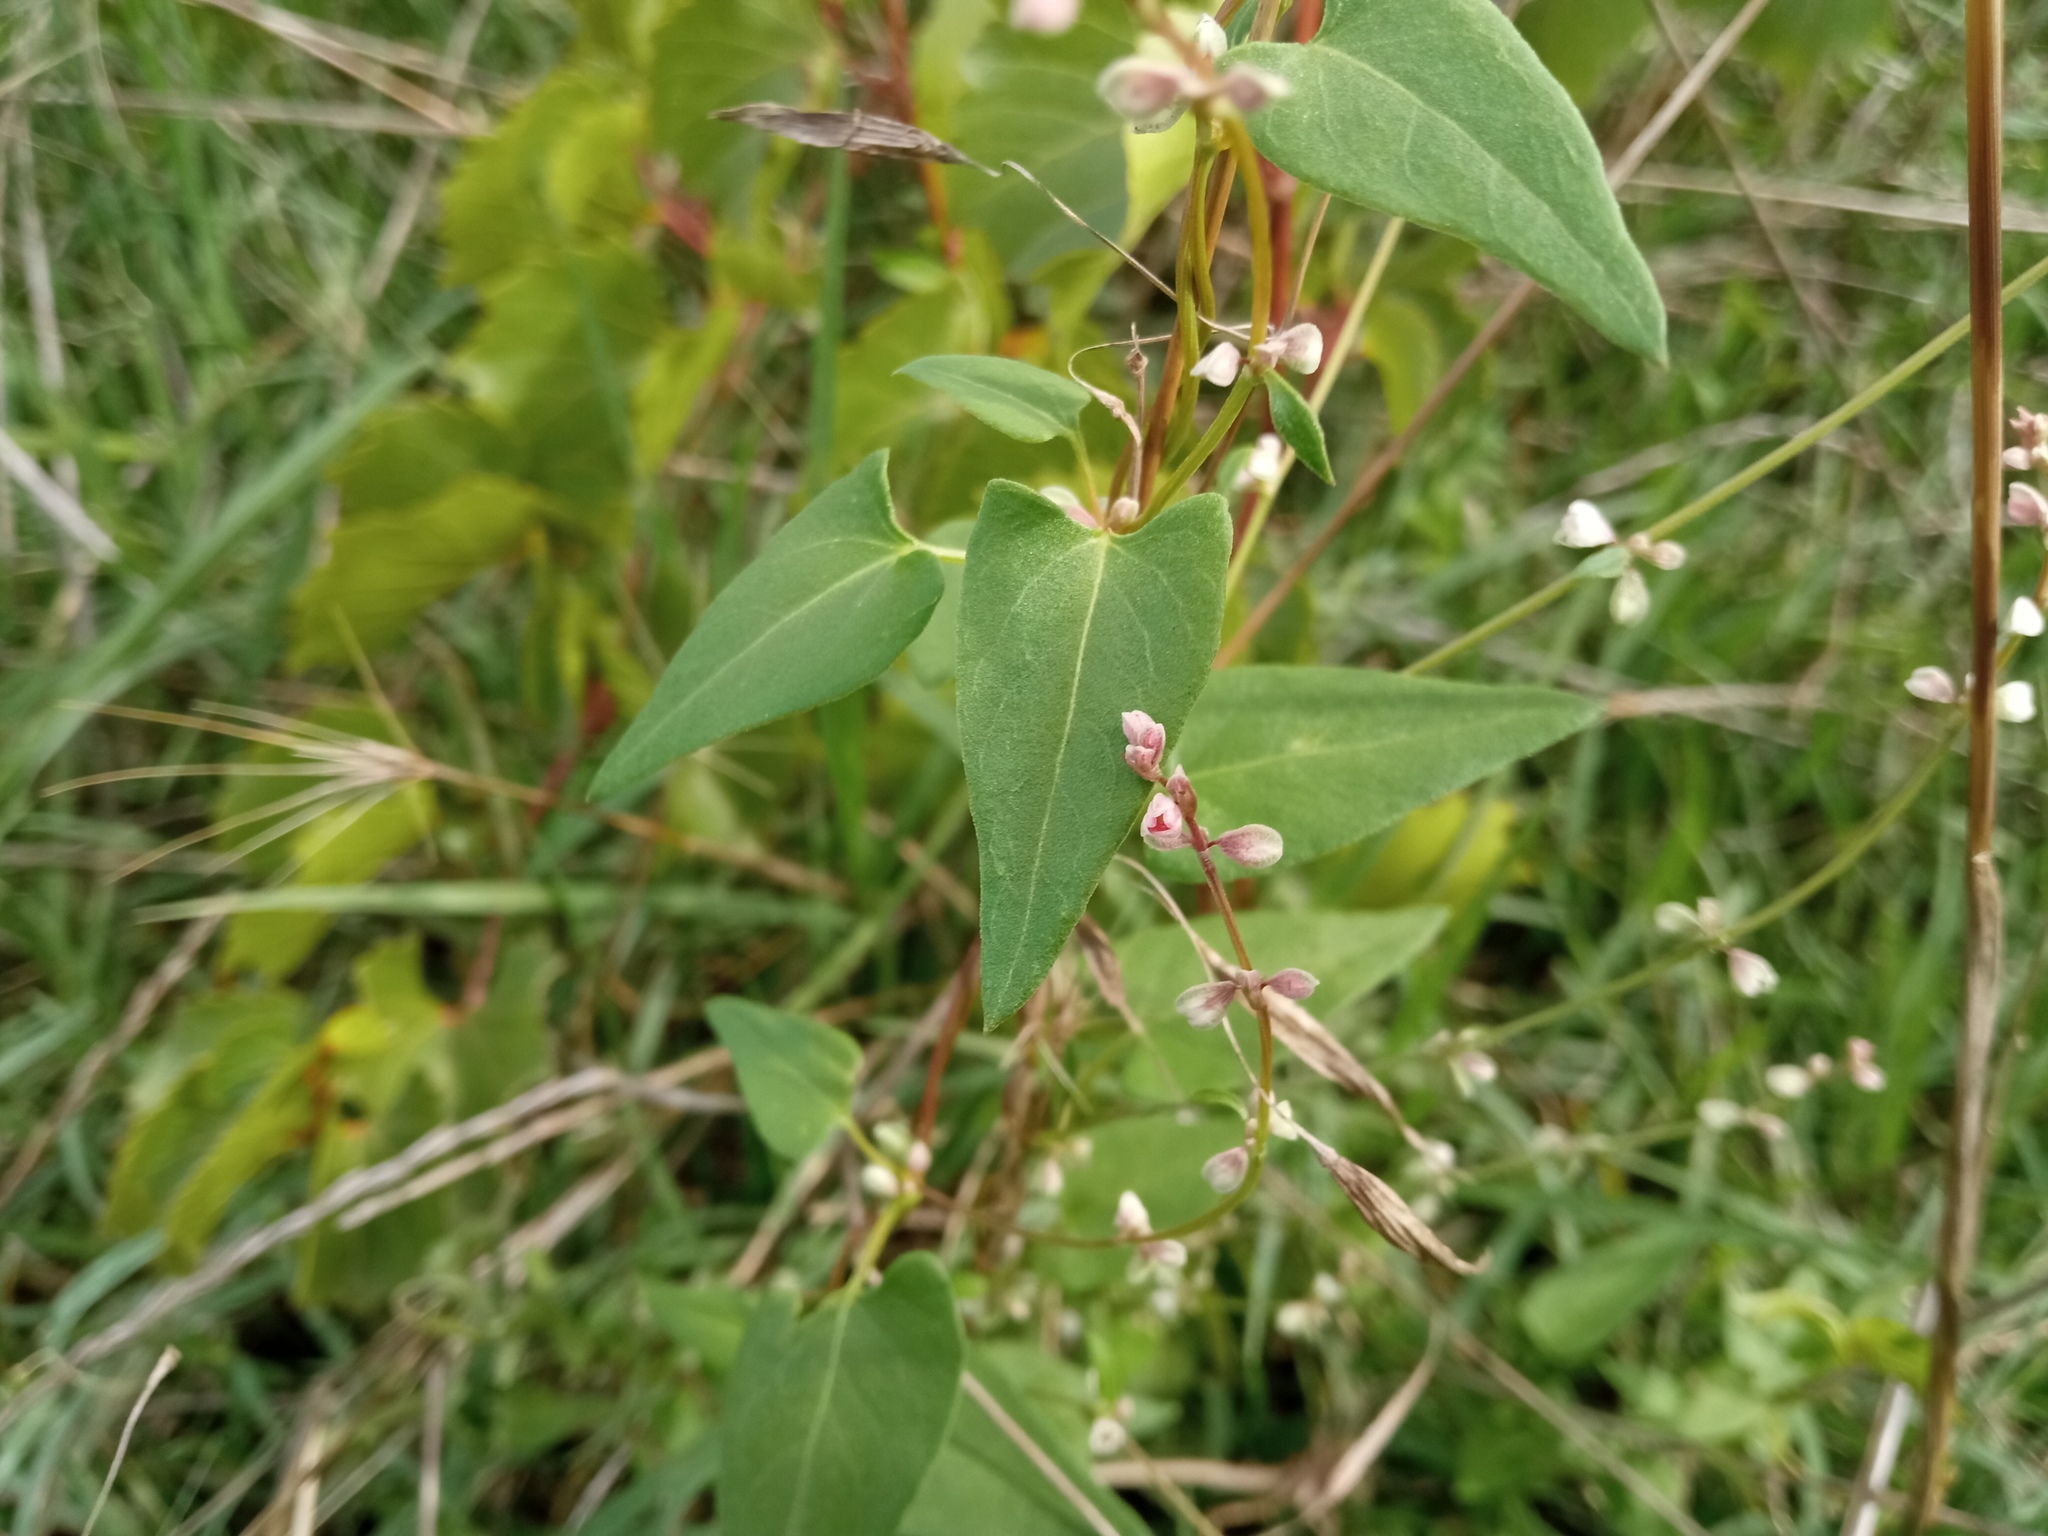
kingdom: Plantae
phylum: Tracheophyta
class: Magnoliopsida
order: Caryophyllales
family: Polygonaceae
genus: Fallopia
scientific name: Fallopia convolvulus
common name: Black bindweed
